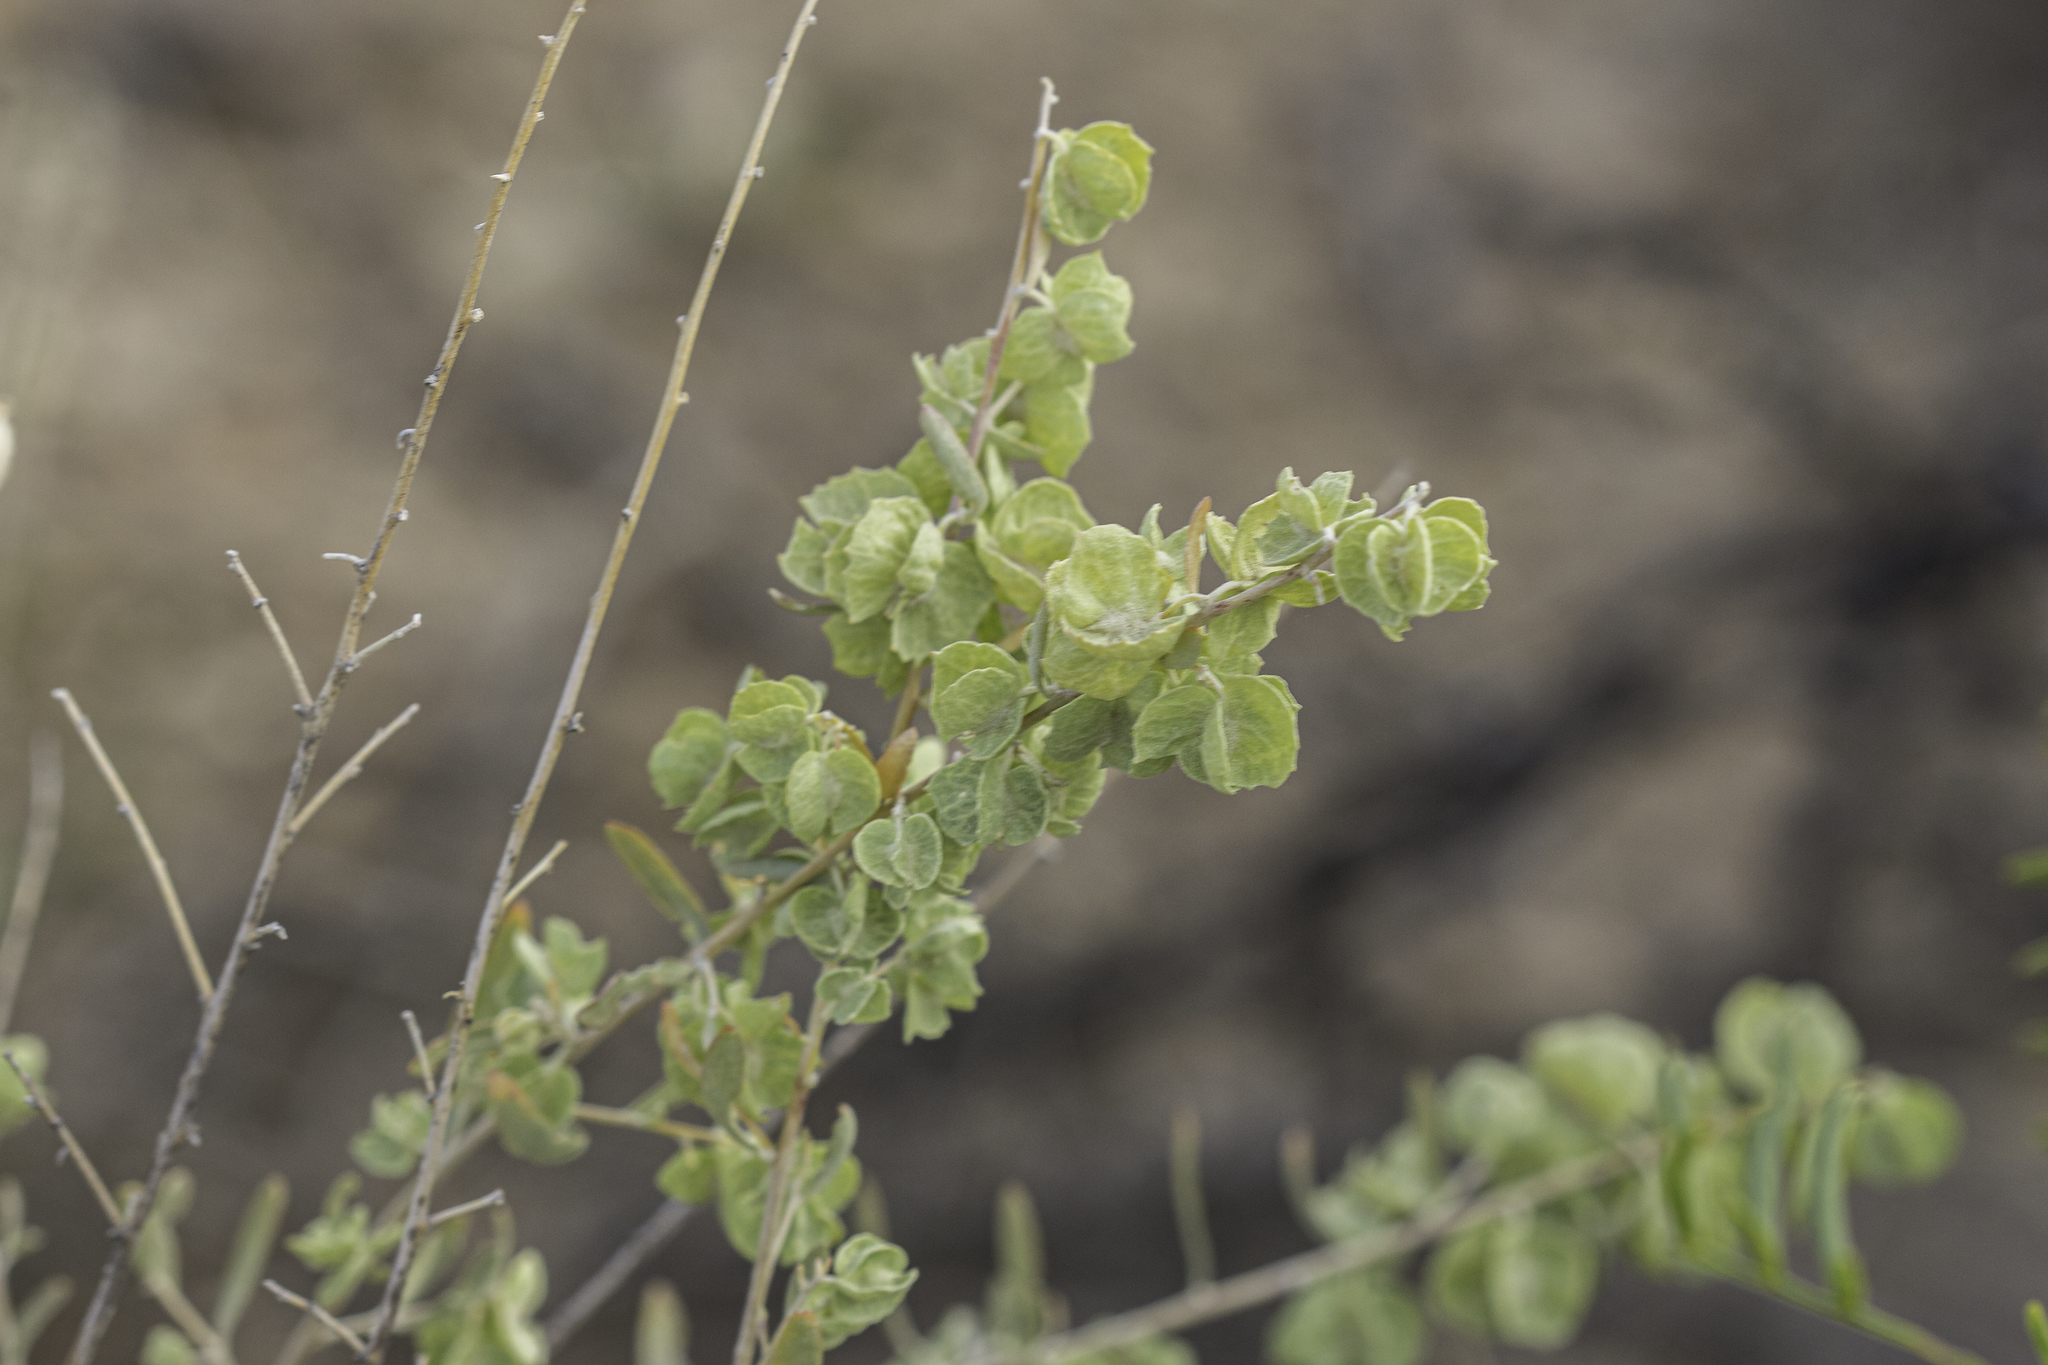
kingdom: Plantae
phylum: Tracheophyta
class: Magnoliopsida
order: Caryophyllales
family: Amaranthaceae
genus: Atriplex
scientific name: Atriplex canescens
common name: Four-wing saltbush
